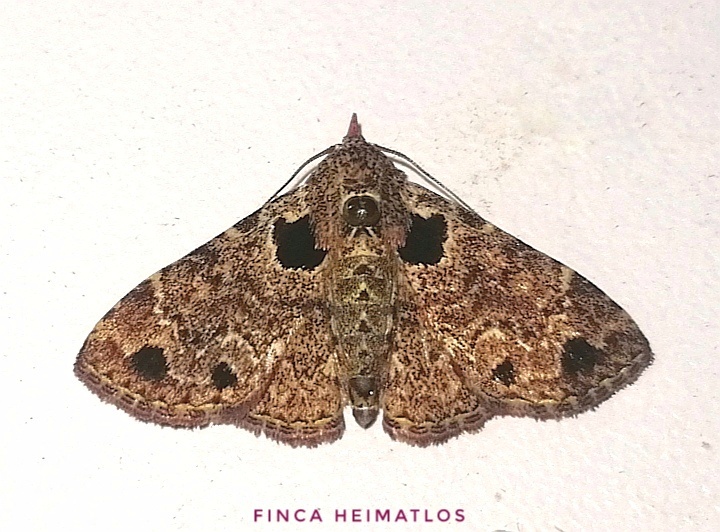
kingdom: Animalia
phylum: Arthropoda
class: Insecta
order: Lepidoptera
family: Erebidae
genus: Metalectra
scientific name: Metalectra verrucata
